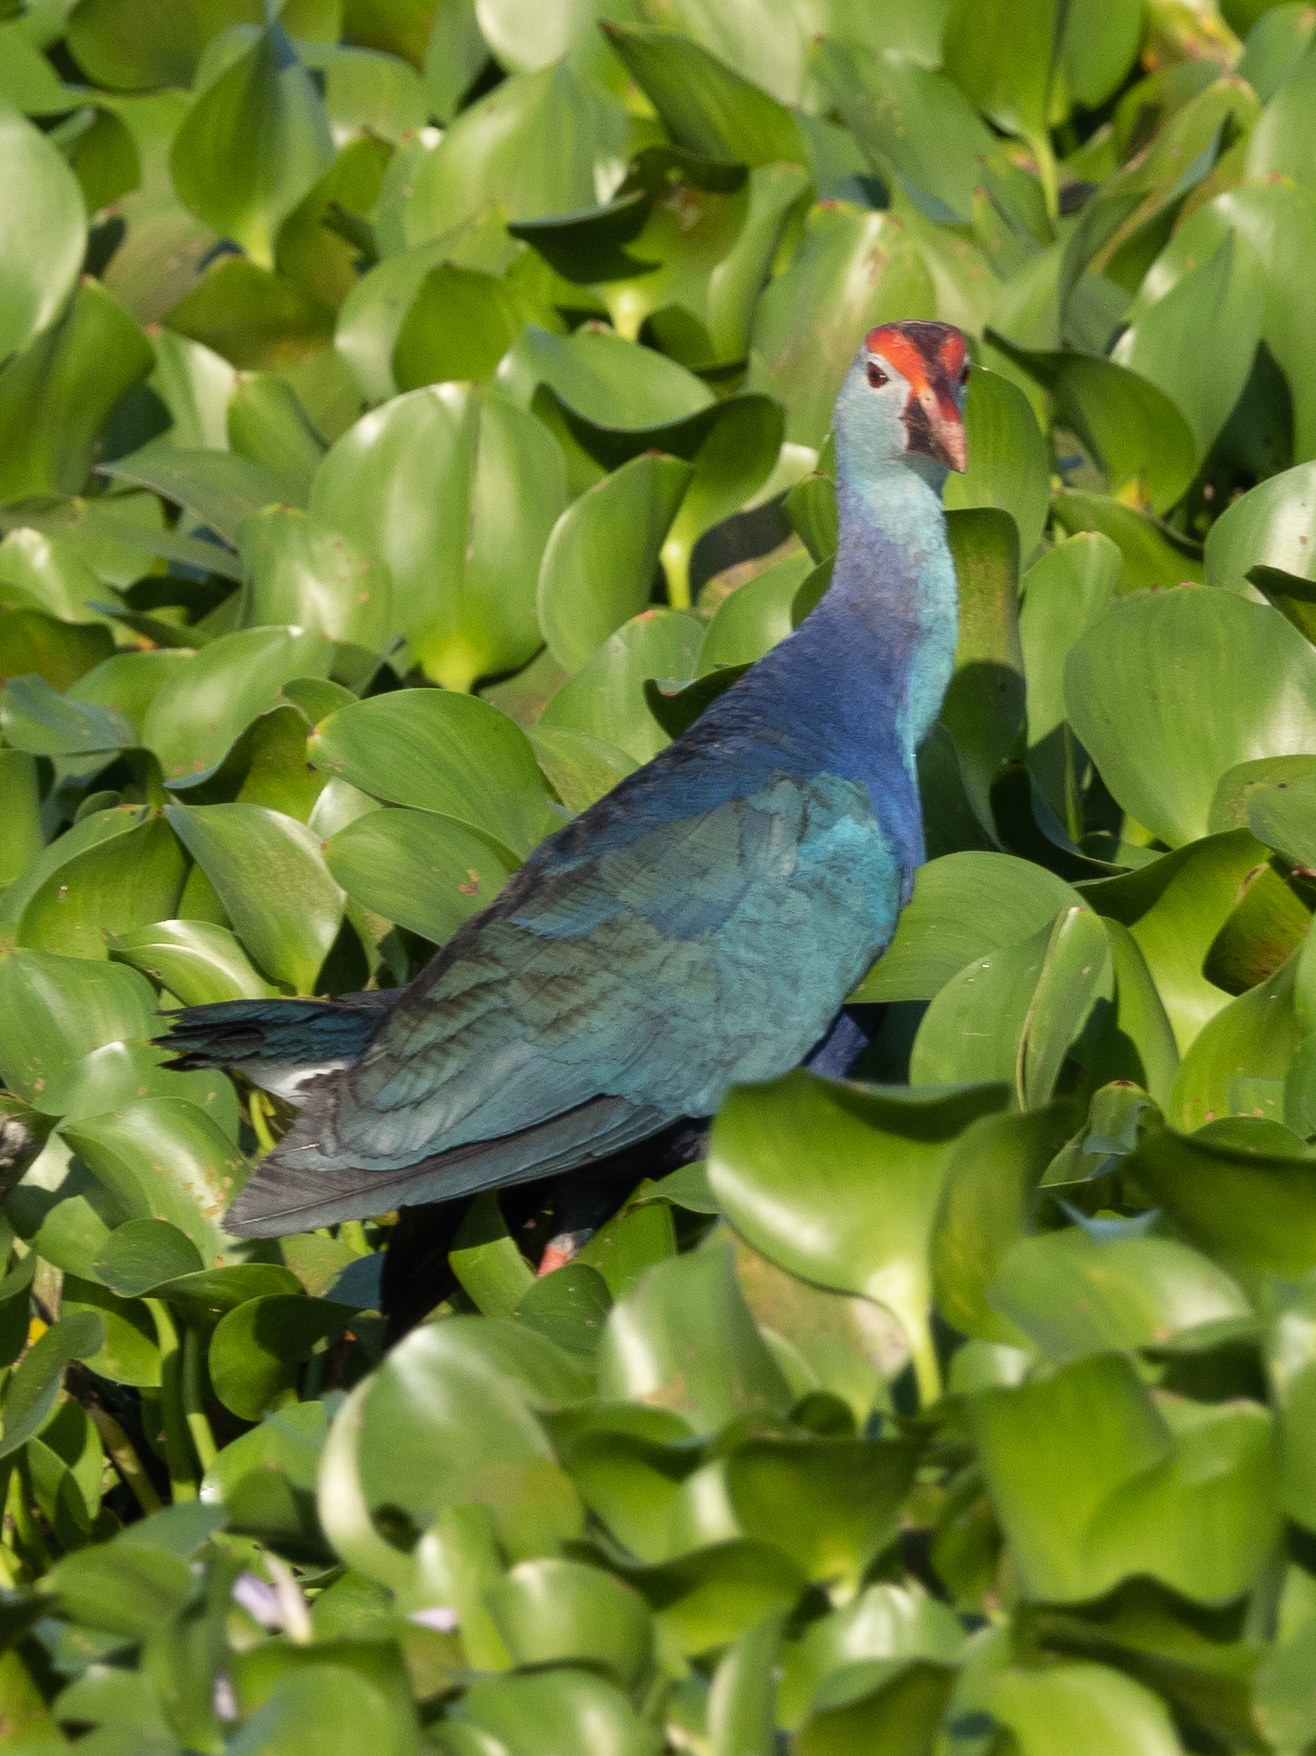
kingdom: Animalia
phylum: Chordata
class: Aves
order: Gruiformes
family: Rallidae
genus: Porphyrio
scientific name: Porphyrio porphyrio
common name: Purple swamphen
